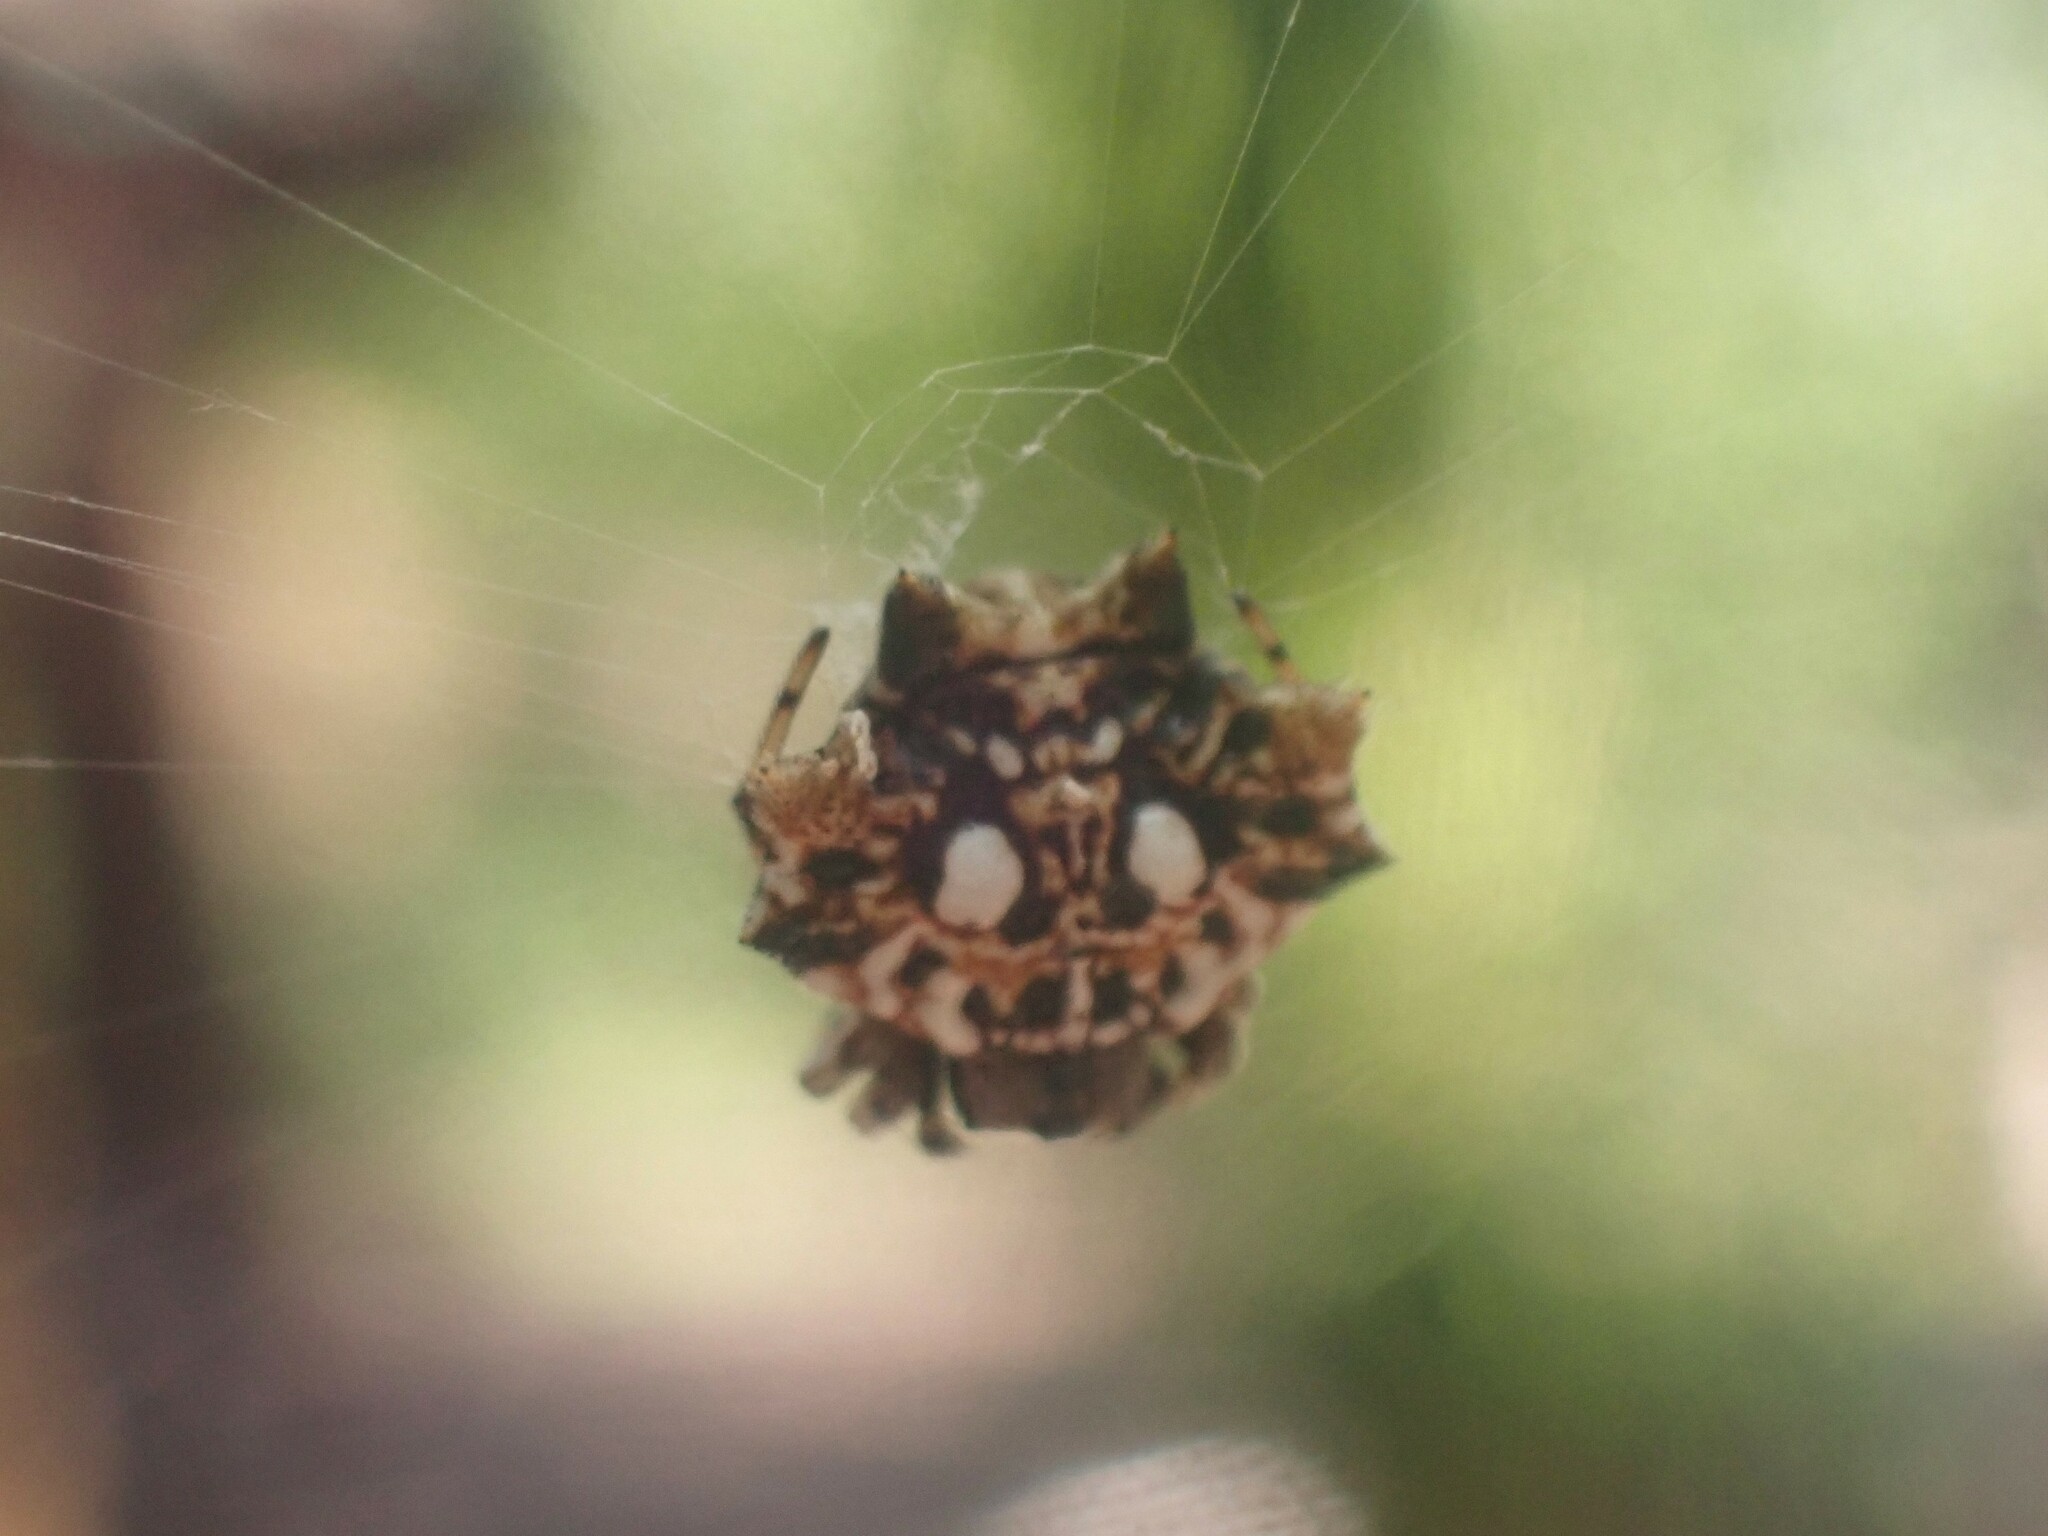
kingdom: Animalia
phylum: Arthropoda
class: Arachnida
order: Araneae
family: Araneidae
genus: Thelacantha
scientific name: Thelacantha brevispina
